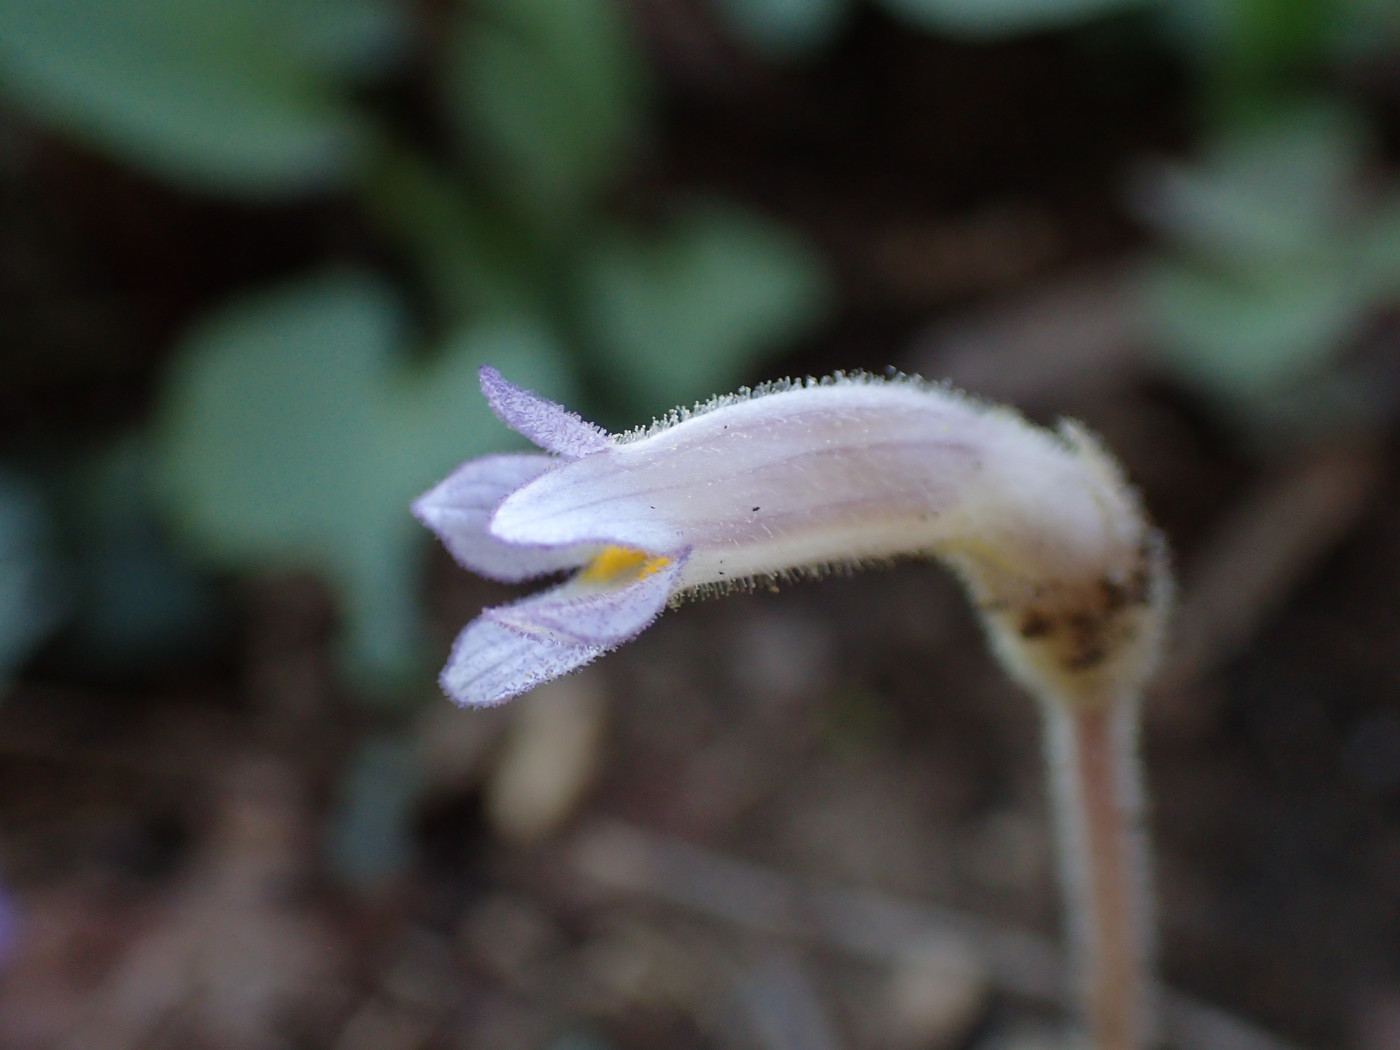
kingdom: Plantae
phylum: Tracheophyta
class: Magnoliopsida
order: Lamiales
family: Orobanchaceae
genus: Aphyllon
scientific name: Aphyllon uniflorum
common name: One-flowered broomrape
